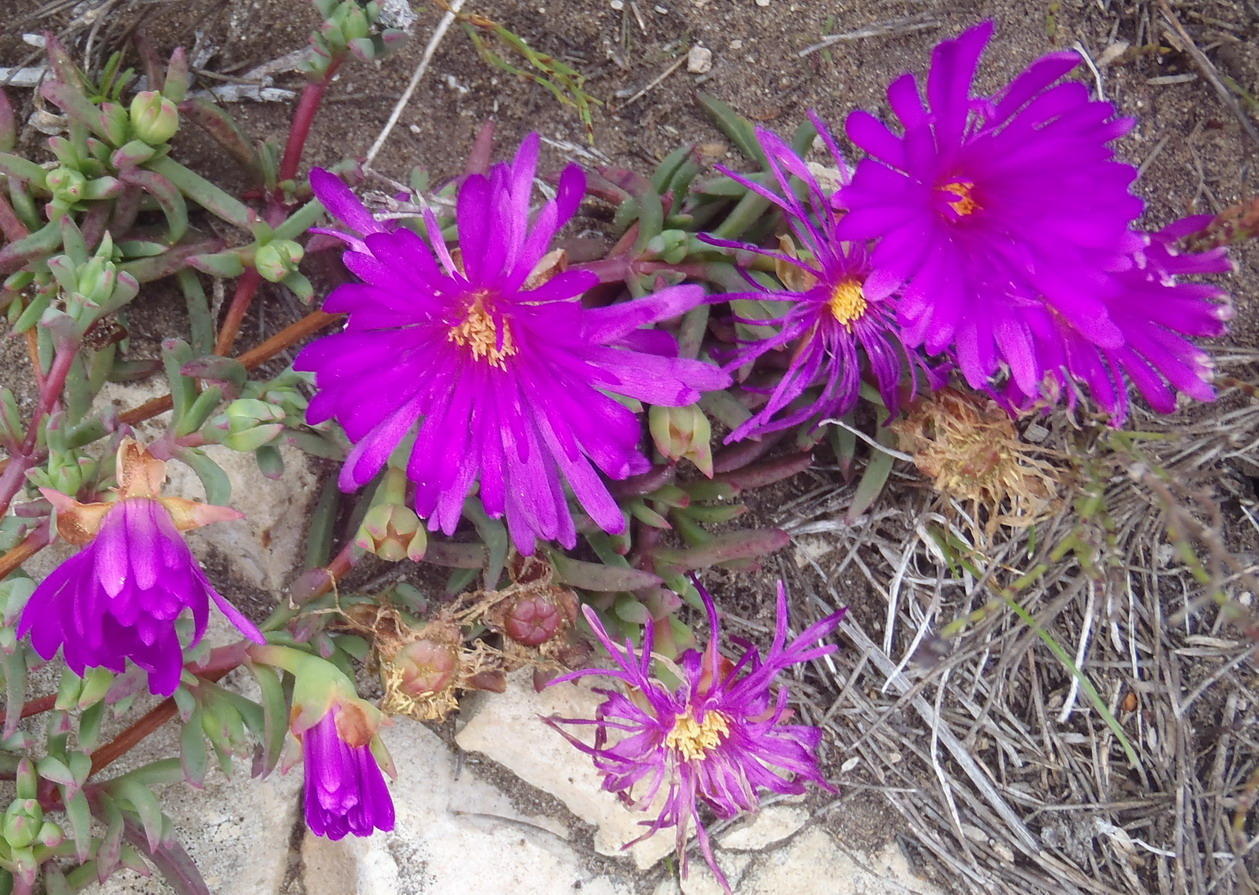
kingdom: Plantae
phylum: Tracheophyta
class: Magnoliopsida
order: Caryophyllales
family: Aizoaceae
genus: Lampranthus
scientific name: Lampranthus ceriseus
